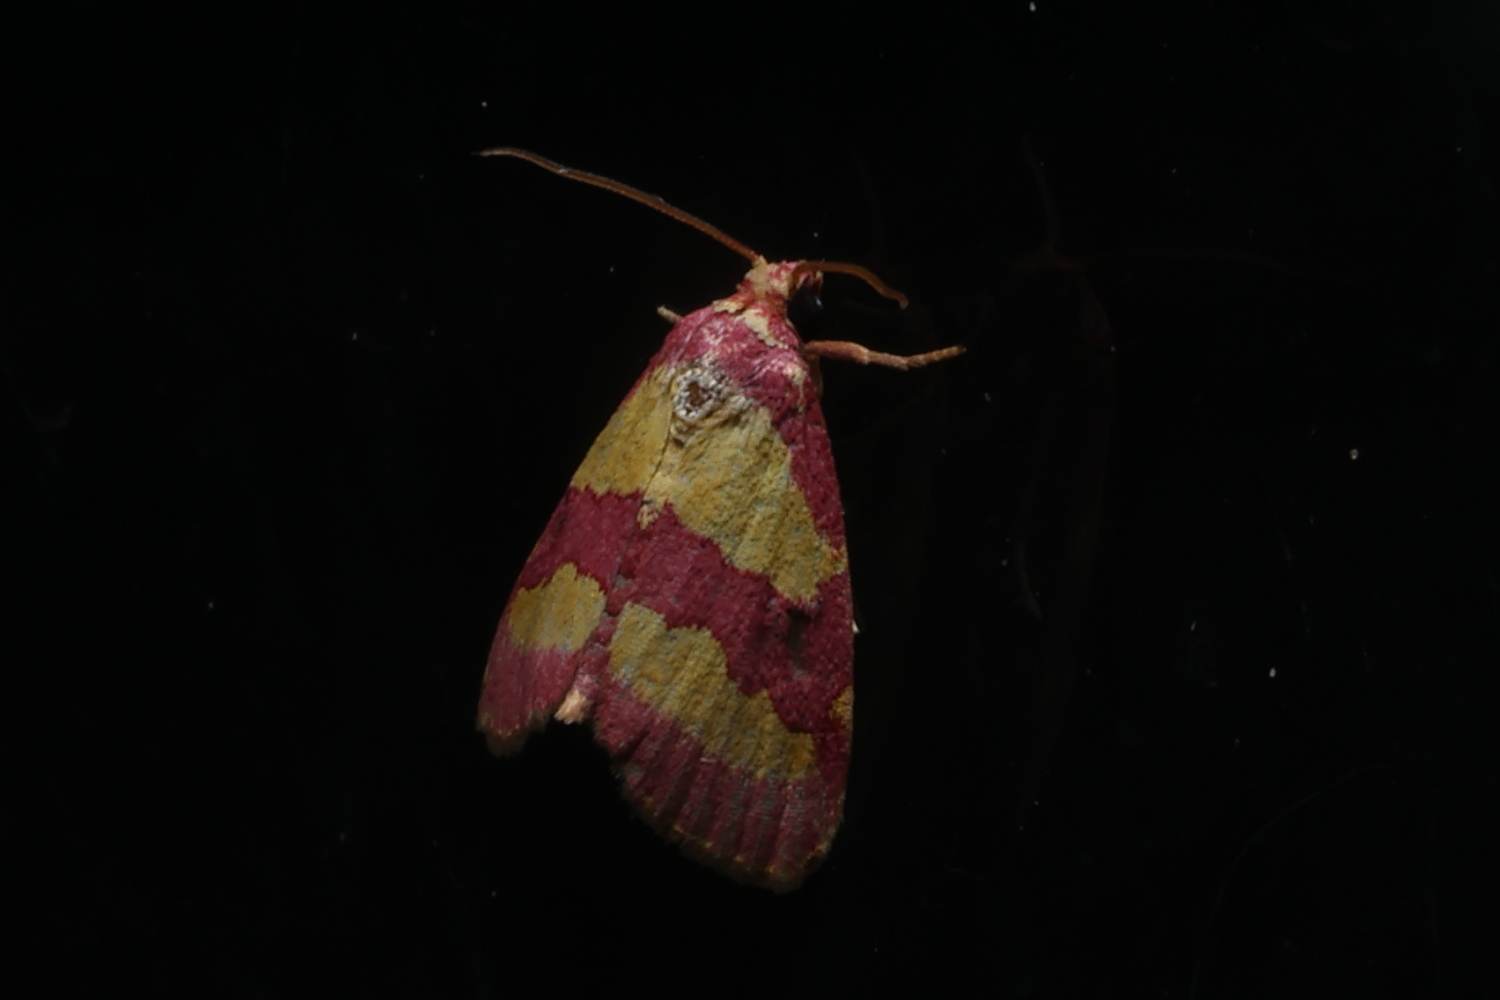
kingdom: Animalia
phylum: Arthropoda
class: Insecta
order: Lepidoptera
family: Noctuidae
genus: Phoenicophanta
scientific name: Phoenicophanta bicolor
